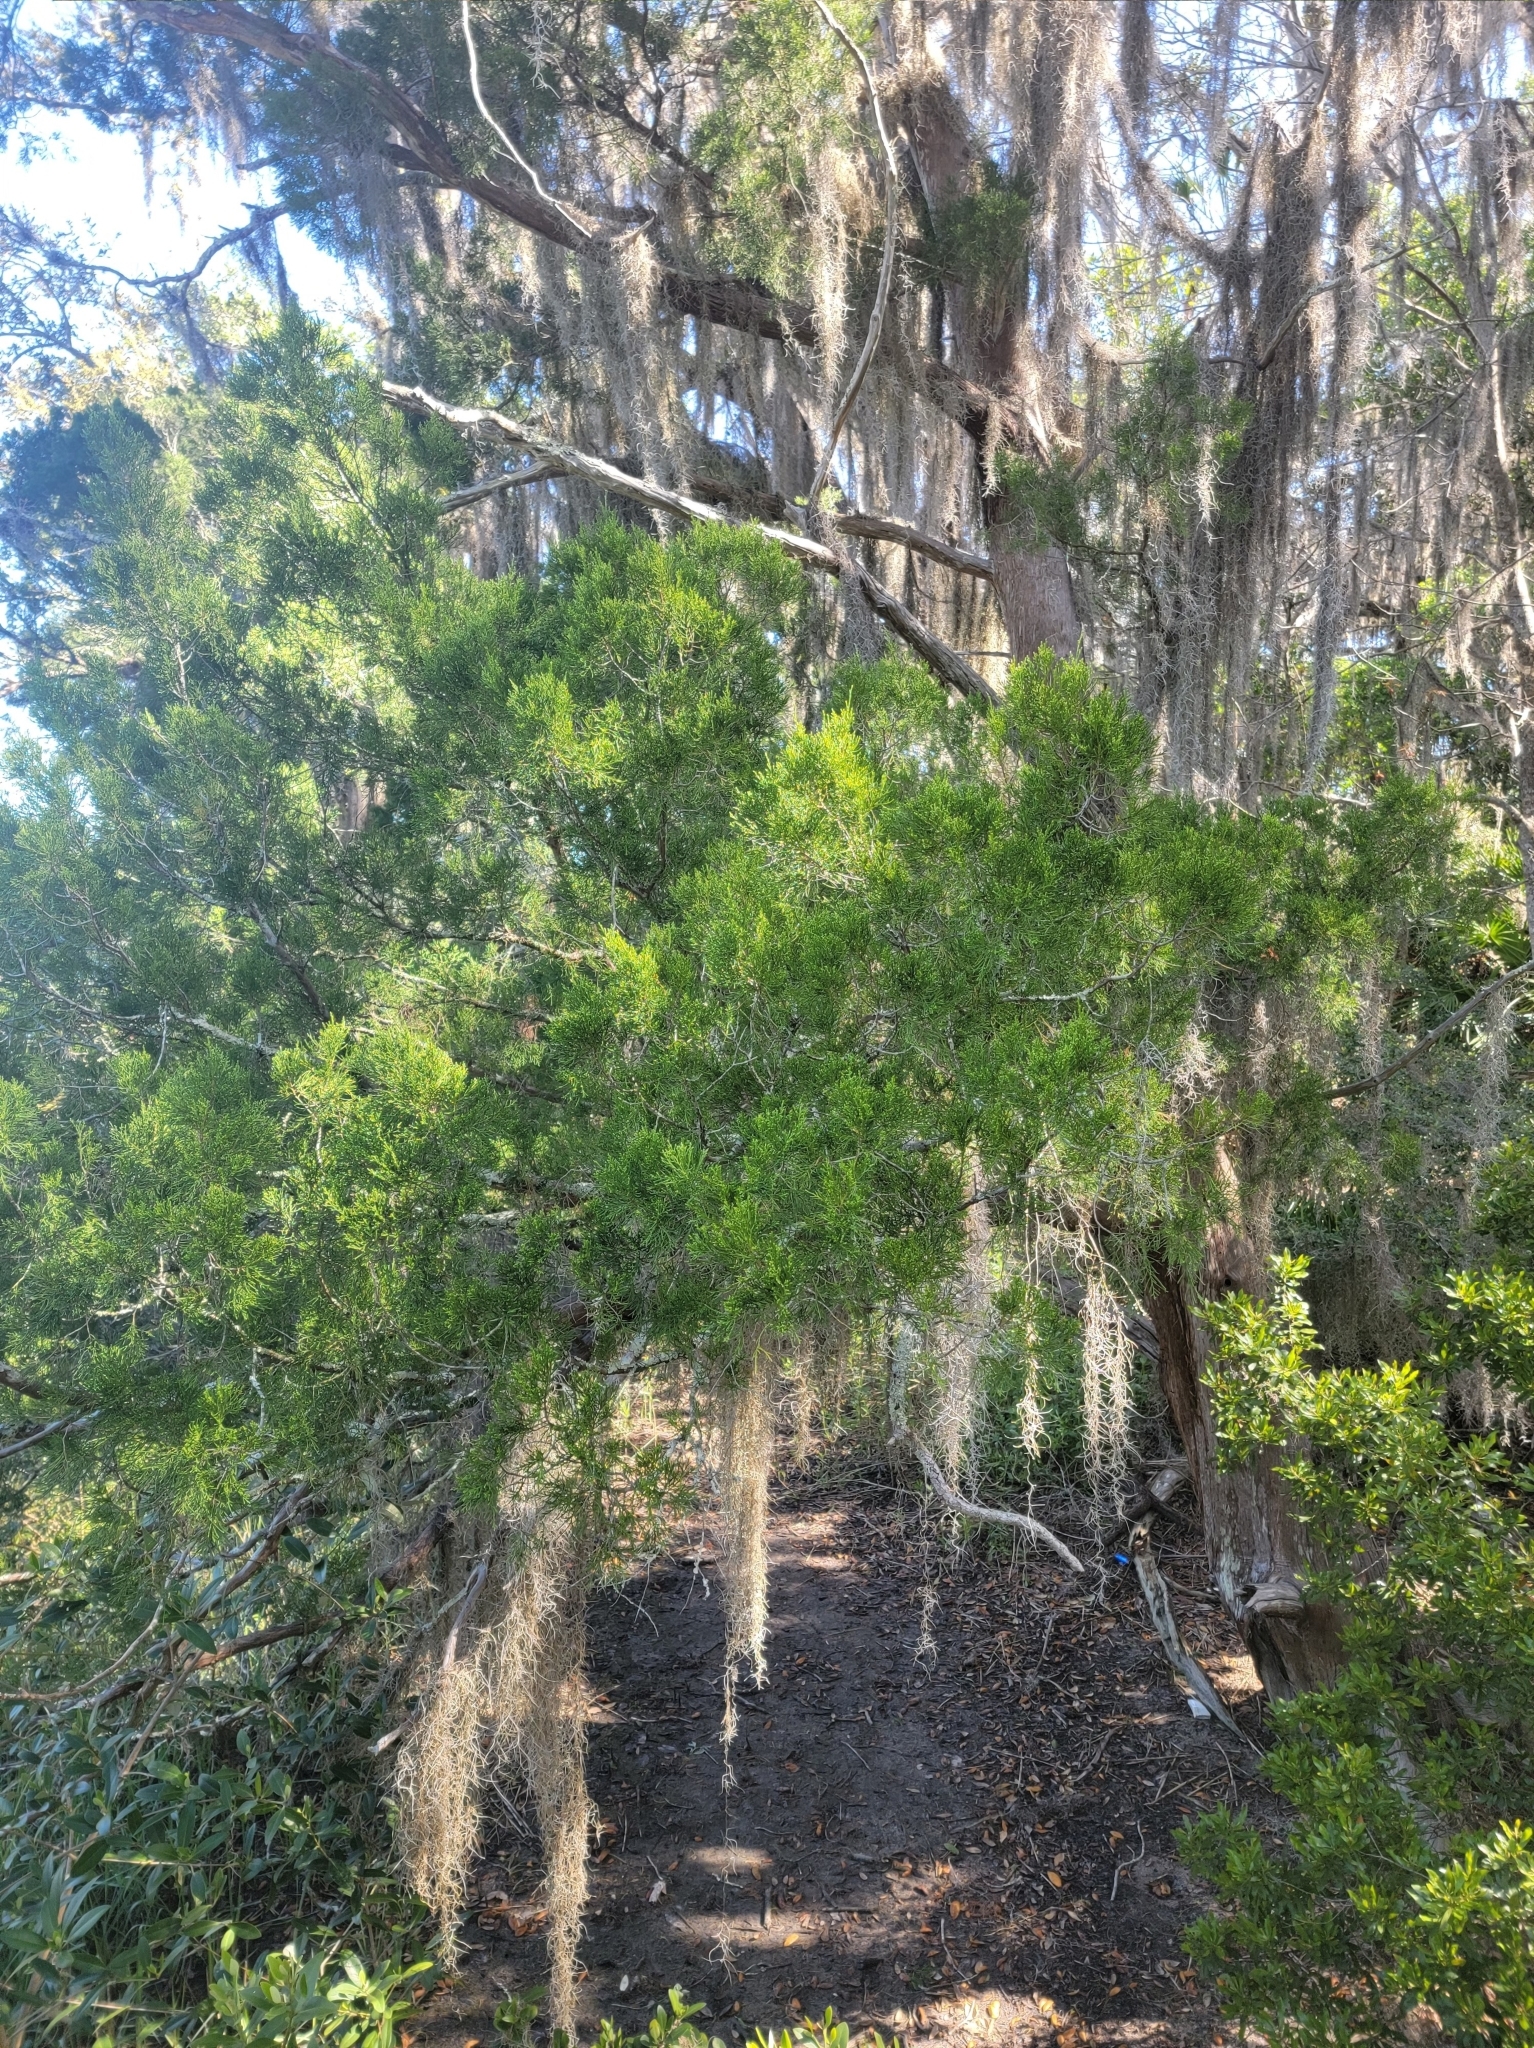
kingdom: Plantae
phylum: Tracheophyta
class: Pinopsida
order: Pinales
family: Cupressaceae
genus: Juniperus
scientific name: Juniperus virginiana
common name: Red juniper
